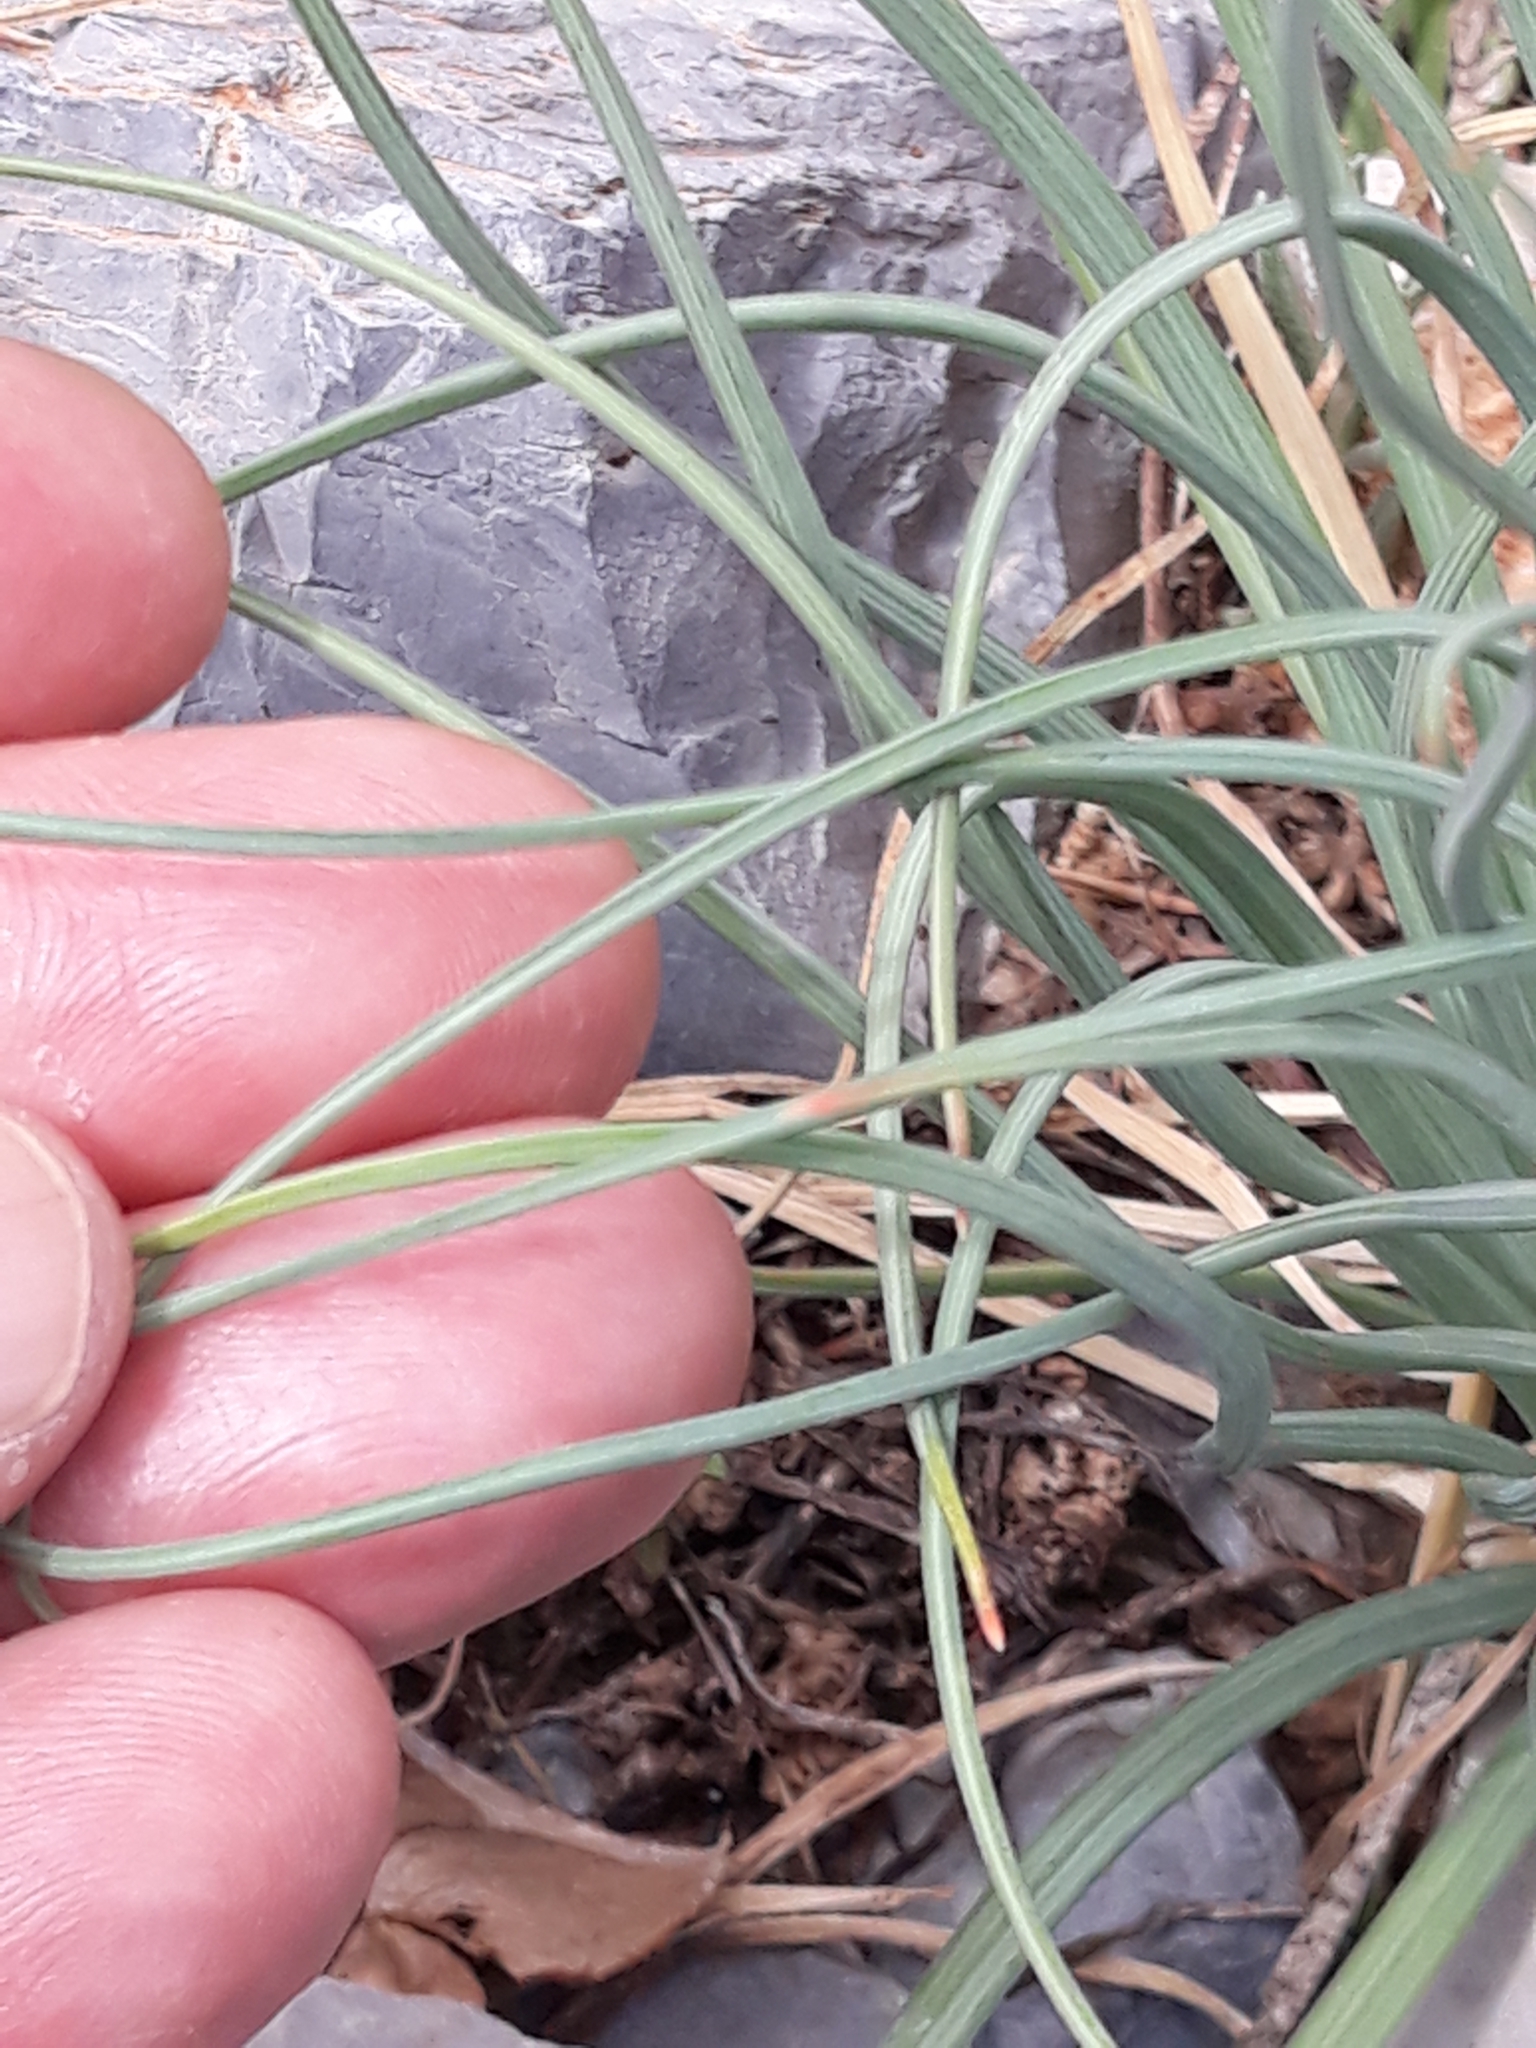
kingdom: Plantae
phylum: Tracheophyta
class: Liliopsida
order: Asparagales
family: Asphodelaceae
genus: Asphodeline
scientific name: Asphodeline lutea
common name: Yellow asphodel
